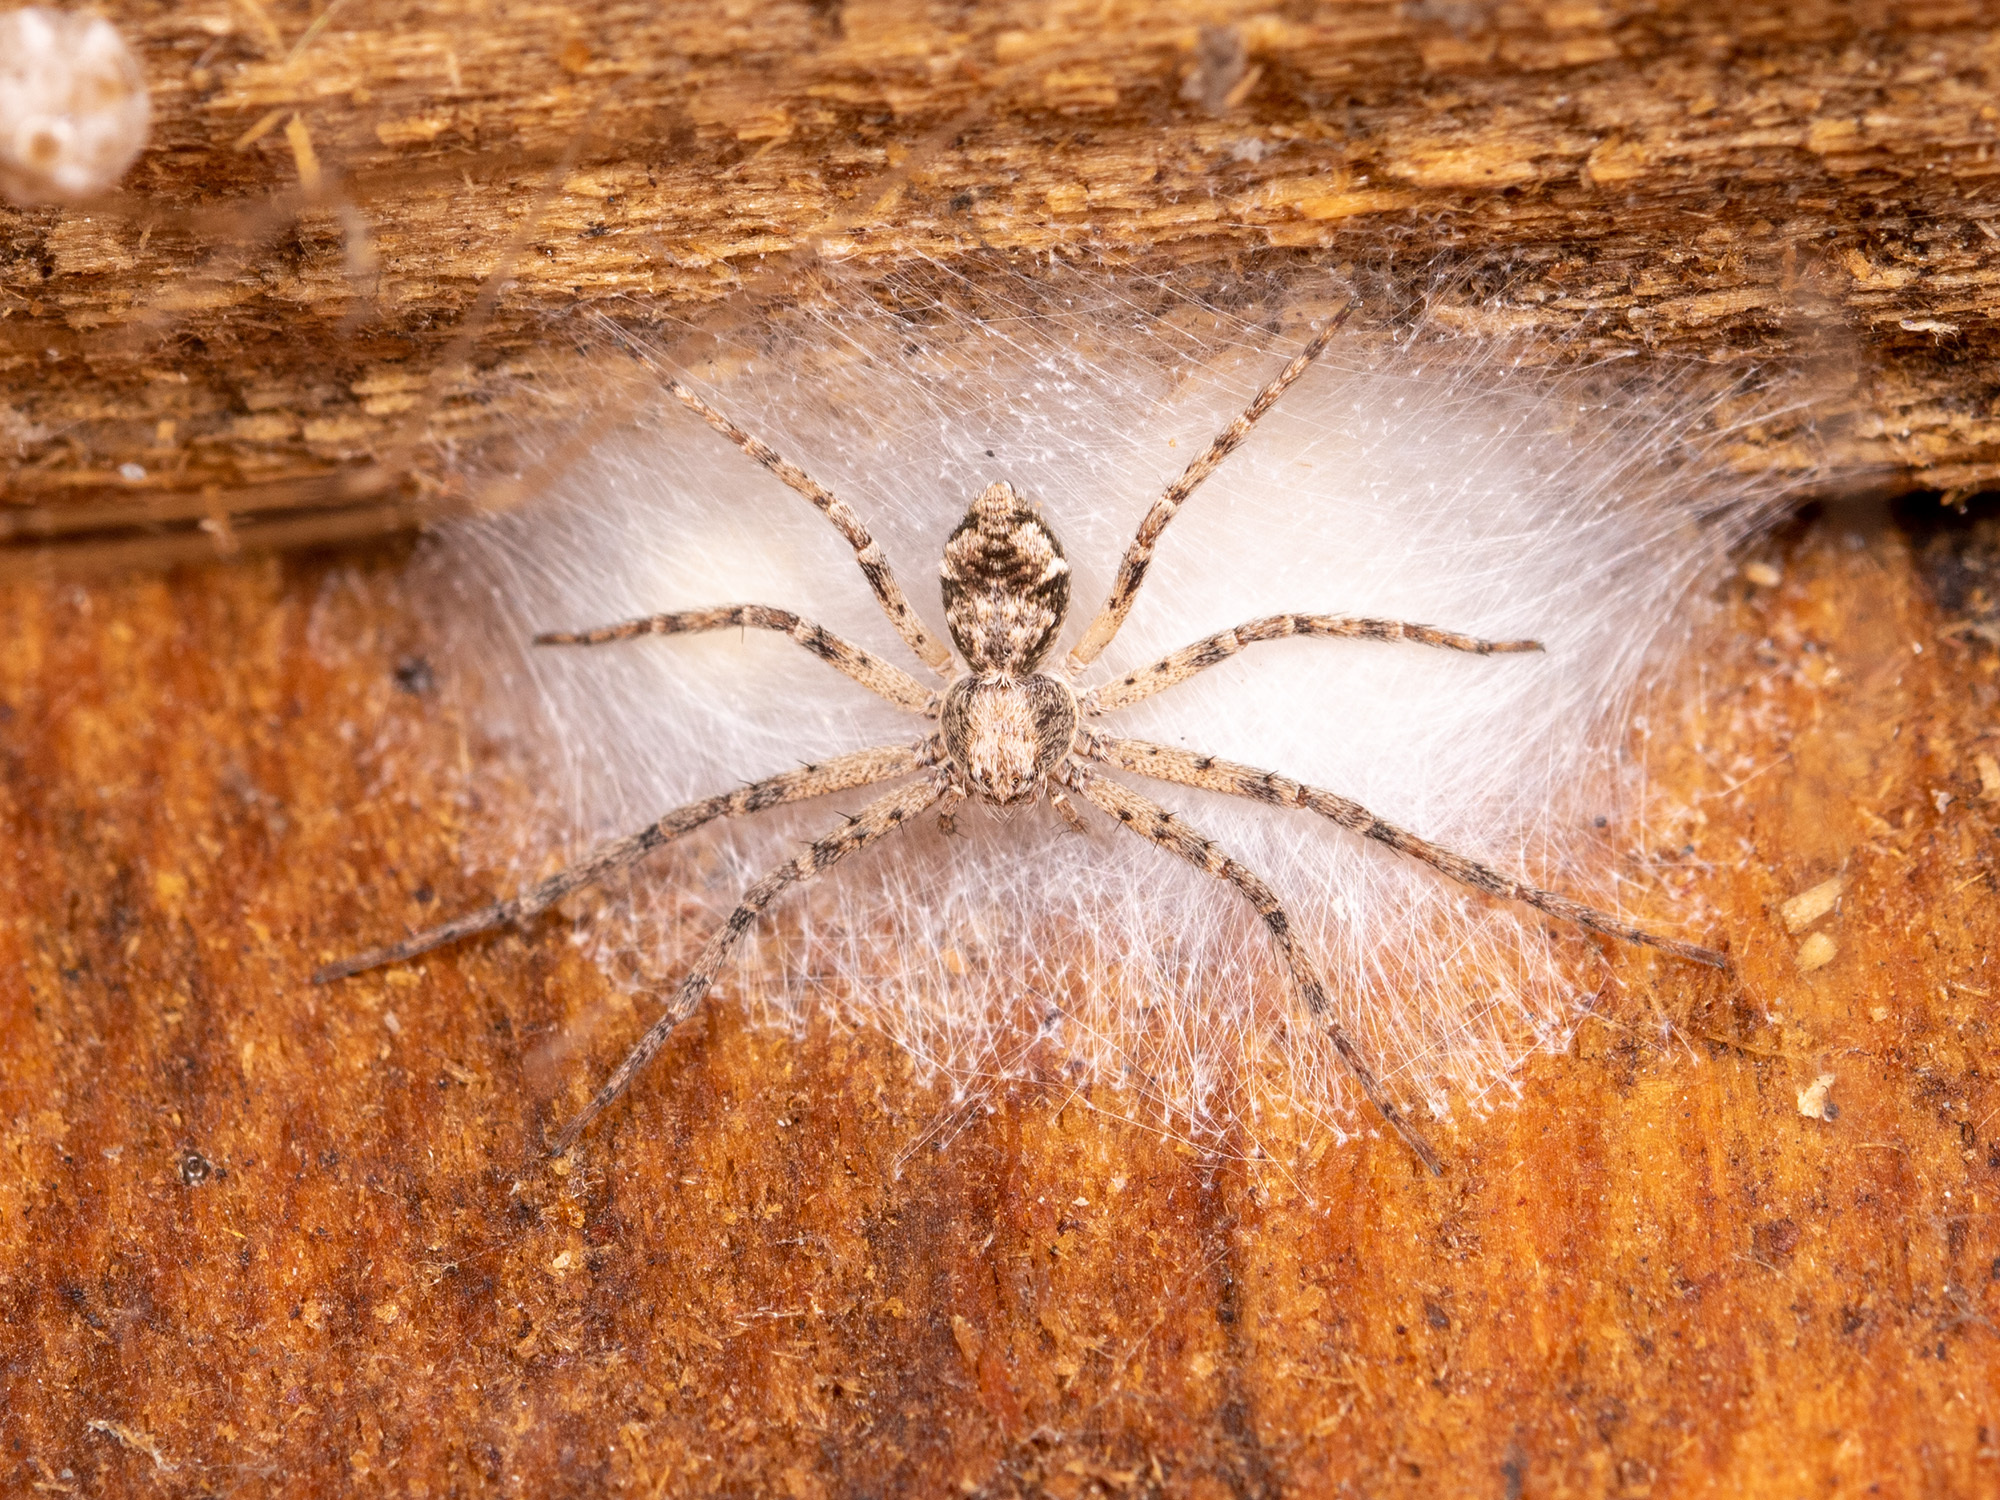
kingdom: Animalia
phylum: Arthropoda
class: Arachnida
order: Araneae
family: Philodromidae
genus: Rhysodromus
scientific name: Rhysodromus pictus
